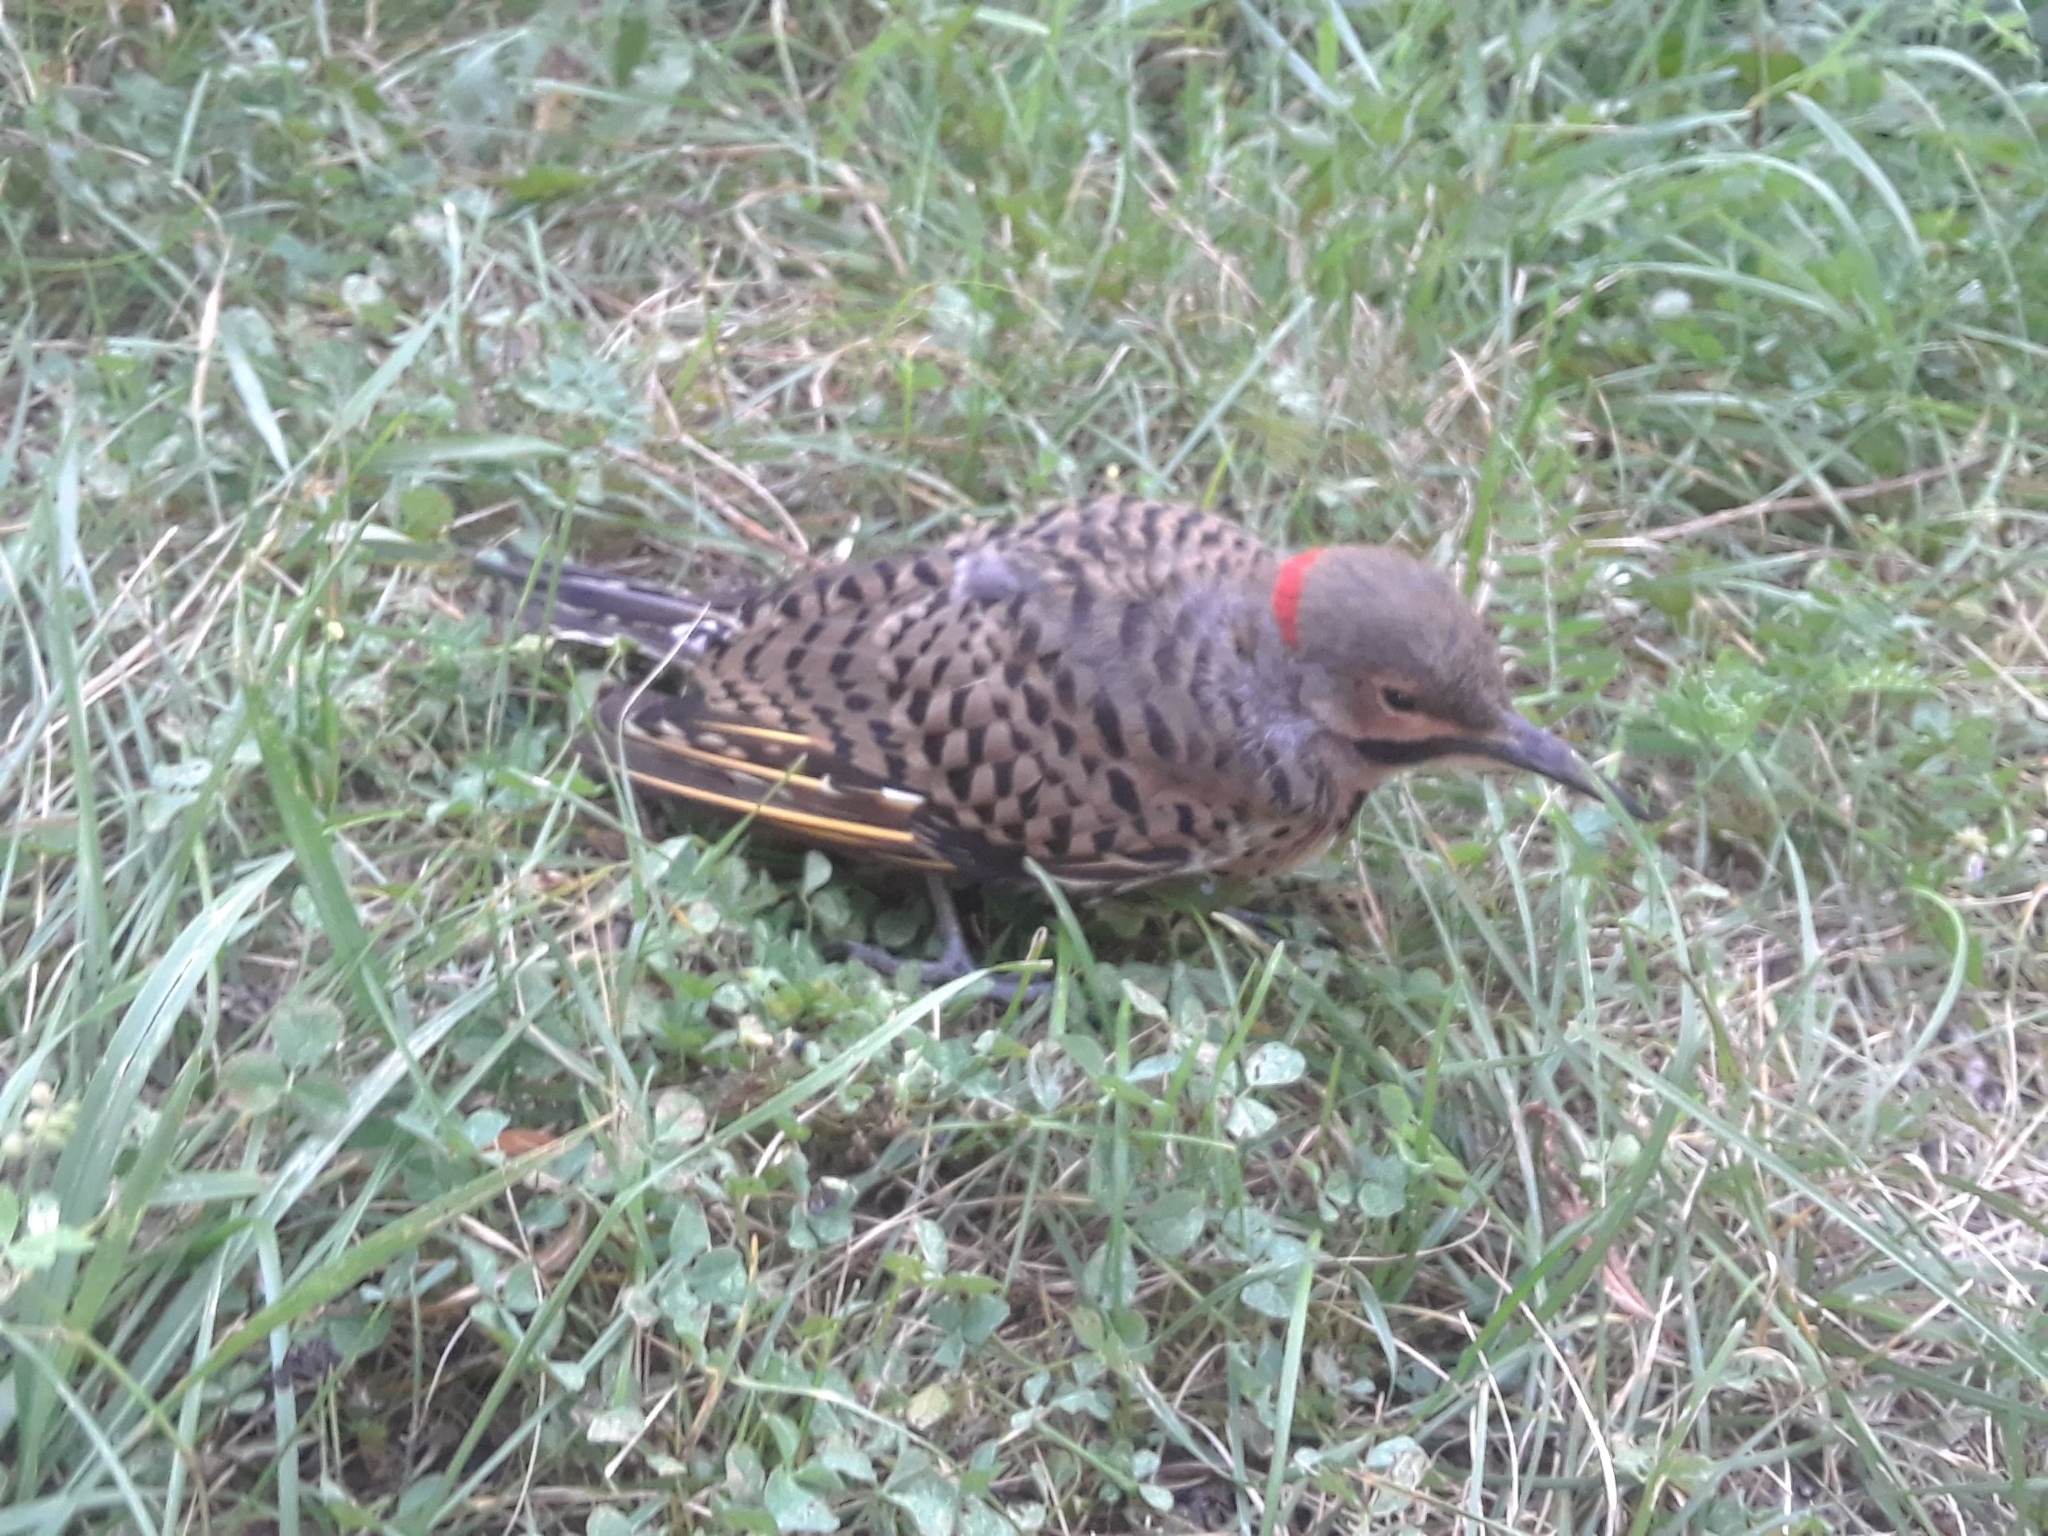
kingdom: Animalia
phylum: Chordata
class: Aves
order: Piciformes
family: Picidae
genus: Colaptes
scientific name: Colaptes auratus
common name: Northern flicker
